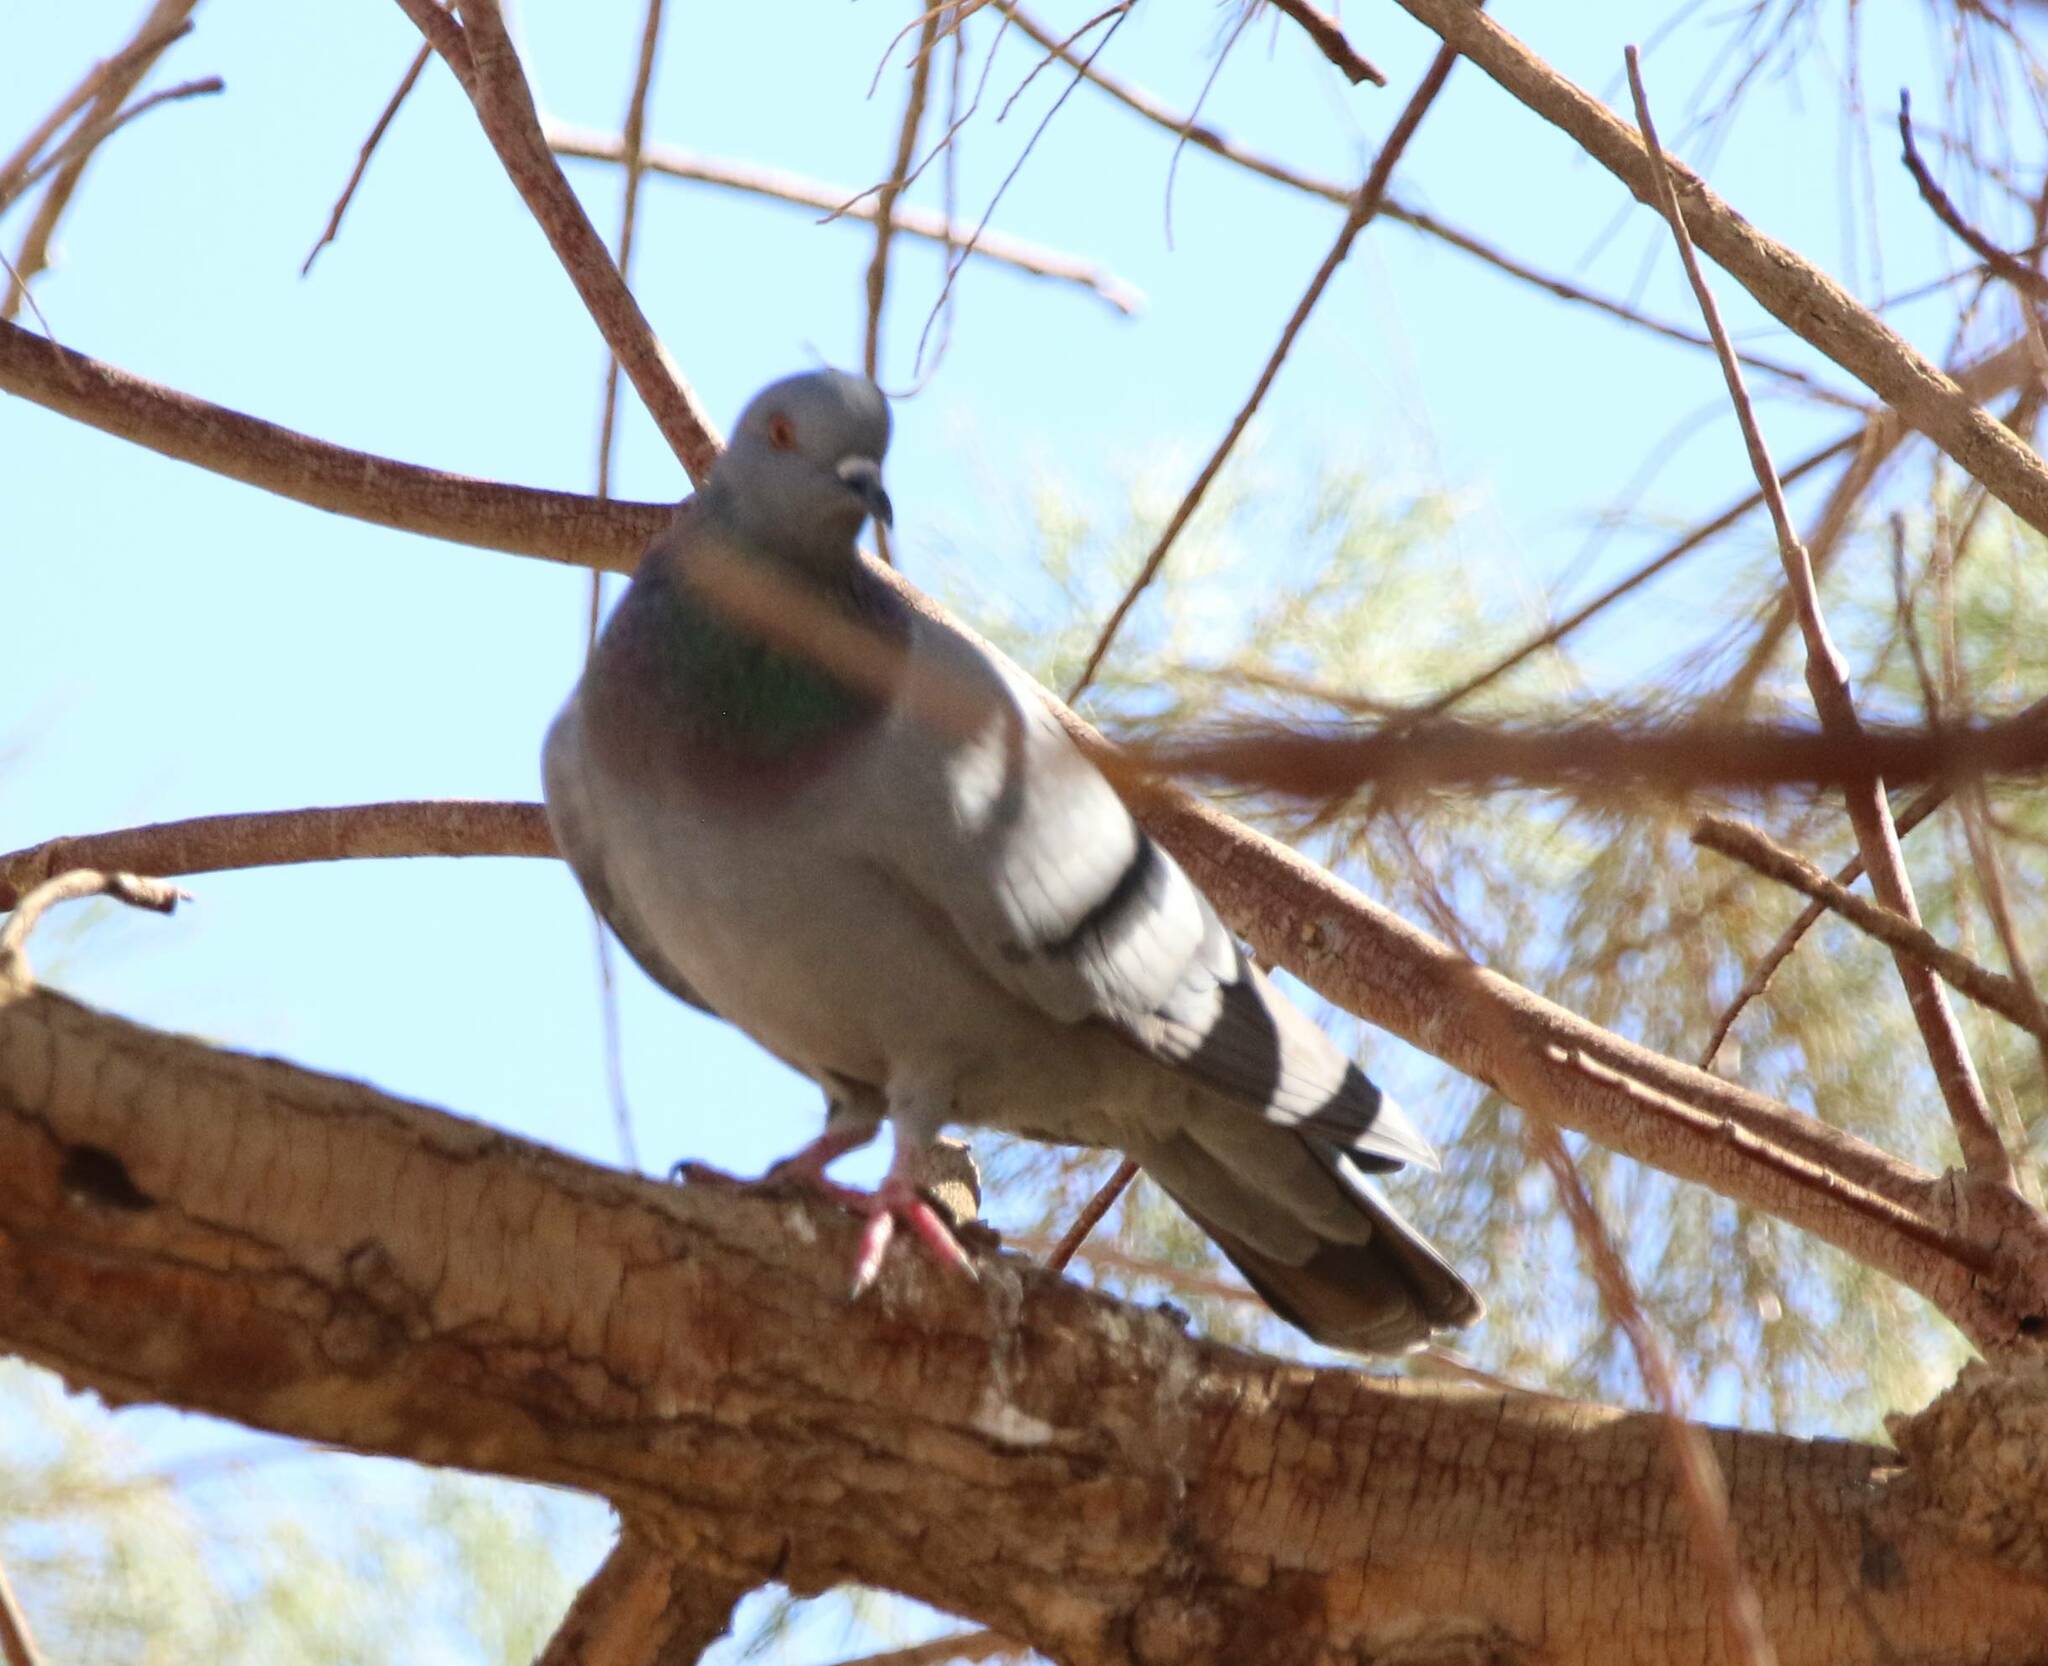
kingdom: Animalia
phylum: Chordata
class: Aves
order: Columbiformes
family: Columbidae
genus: Columba
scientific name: Columba livia
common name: Rock pigeon
